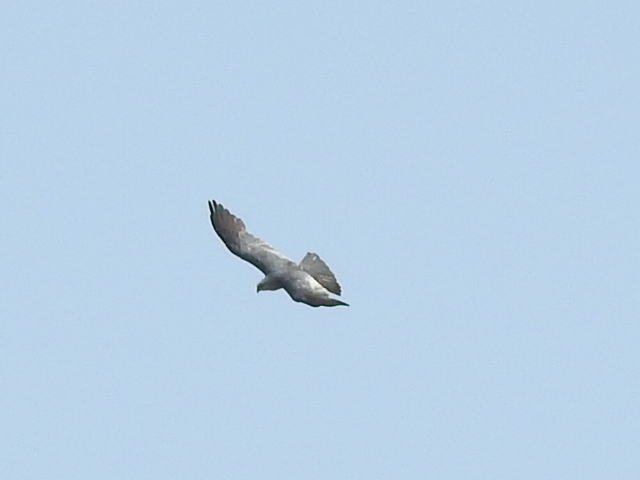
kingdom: Animalia
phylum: Chordata
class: Aves
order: Accipitriformes
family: Accipitridae
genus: Ictinia
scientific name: Ictinia mississippiensis
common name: Mississippi kite
